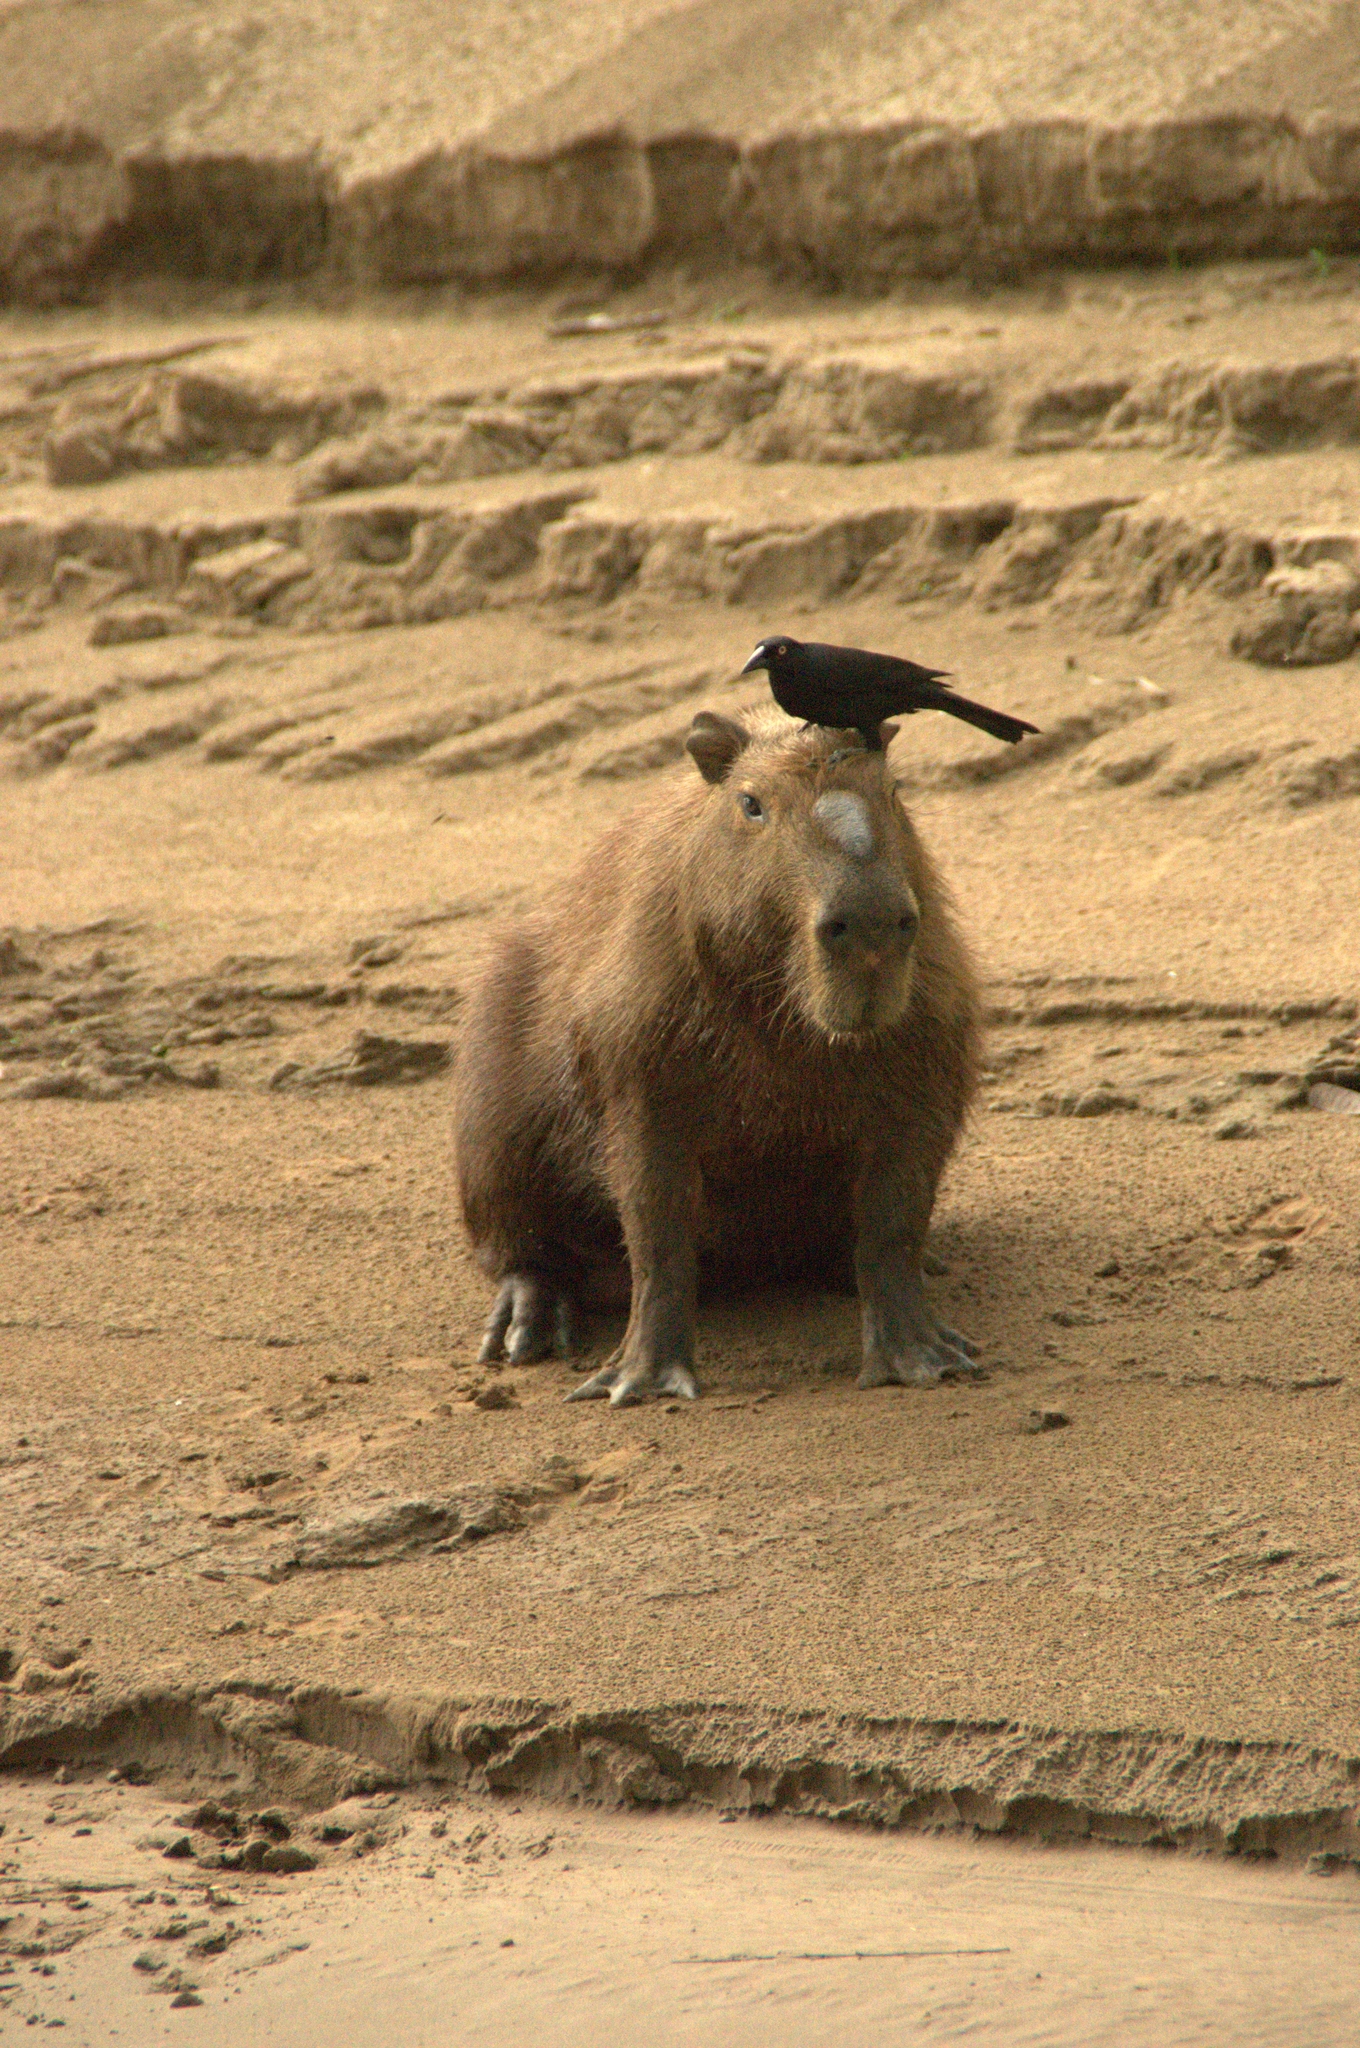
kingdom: Animalia
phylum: Chordata
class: Aves
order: Passeriformes
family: Icteridae
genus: Molothrus
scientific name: Molothrus oryzivorus
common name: Giant cowbird
